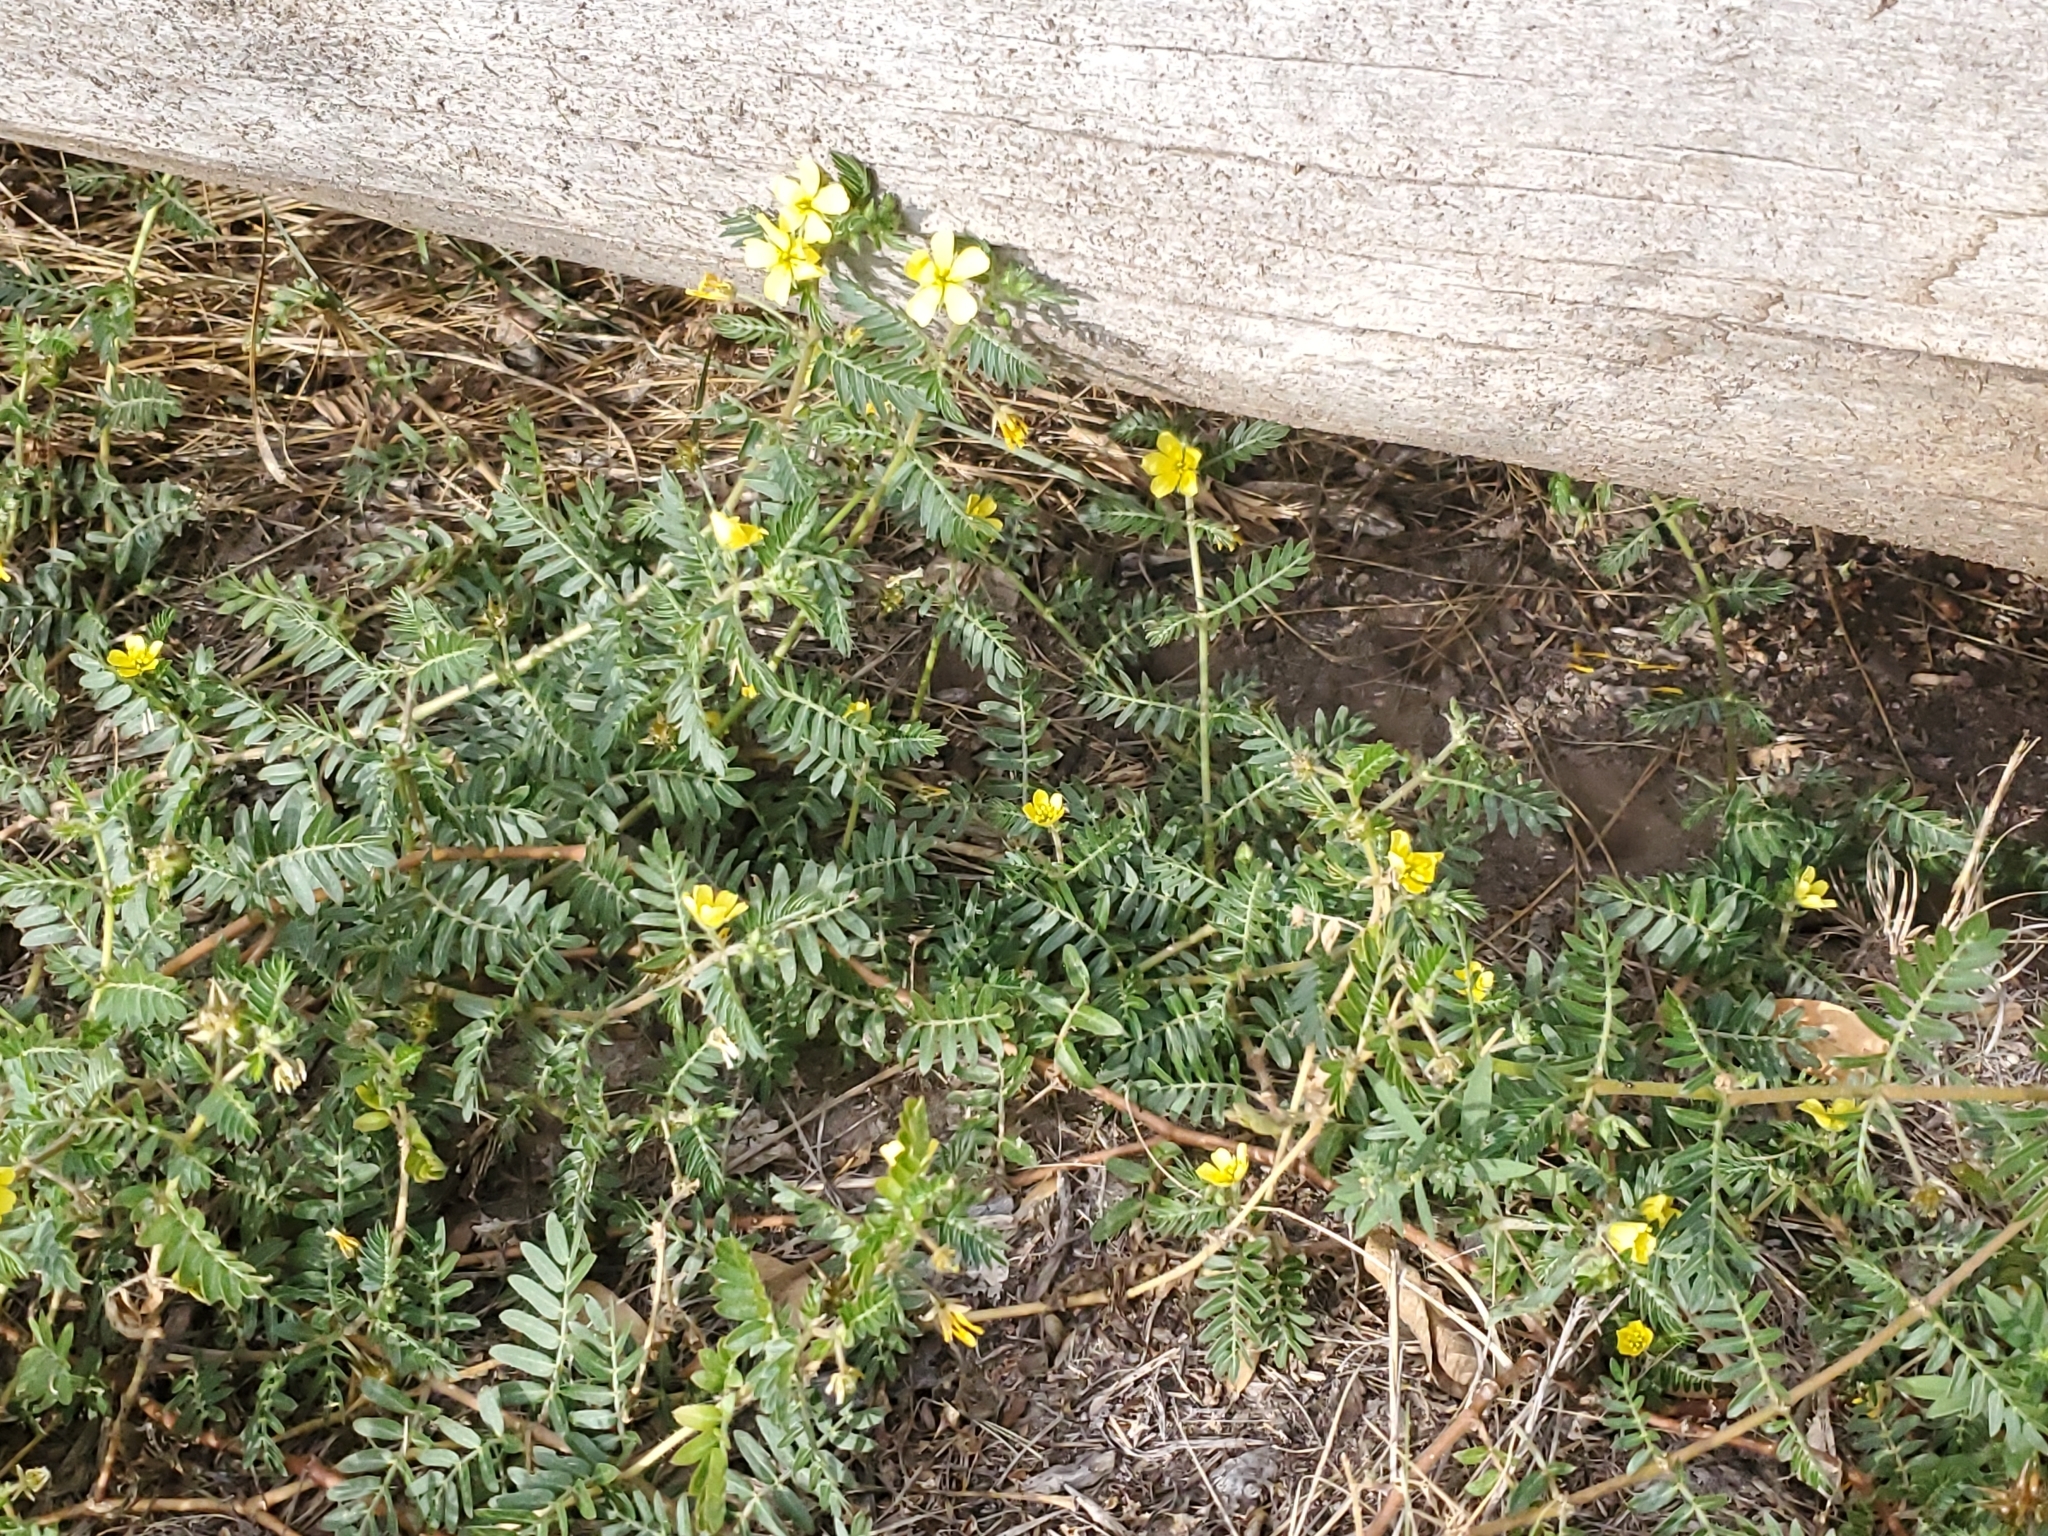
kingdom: Plantae
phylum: Tracheophyta
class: Magnoliopsida
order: Zygophyllales
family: Zygophyllaceae
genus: Tribulus
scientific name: Tribulus terrestris
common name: Puncturevine
